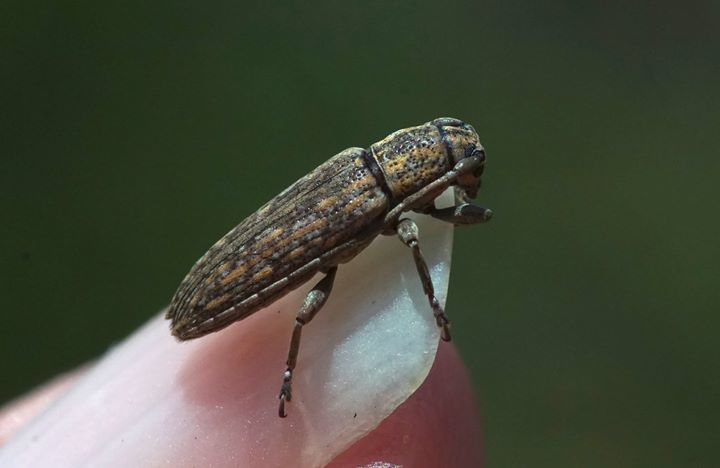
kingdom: Animalia
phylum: Arthropoda
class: Insecta
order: Coleoptera
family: Cerambycidae
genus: Mycerinopsis
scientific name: Mycerinopsis alternans
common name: Long horned beetle
